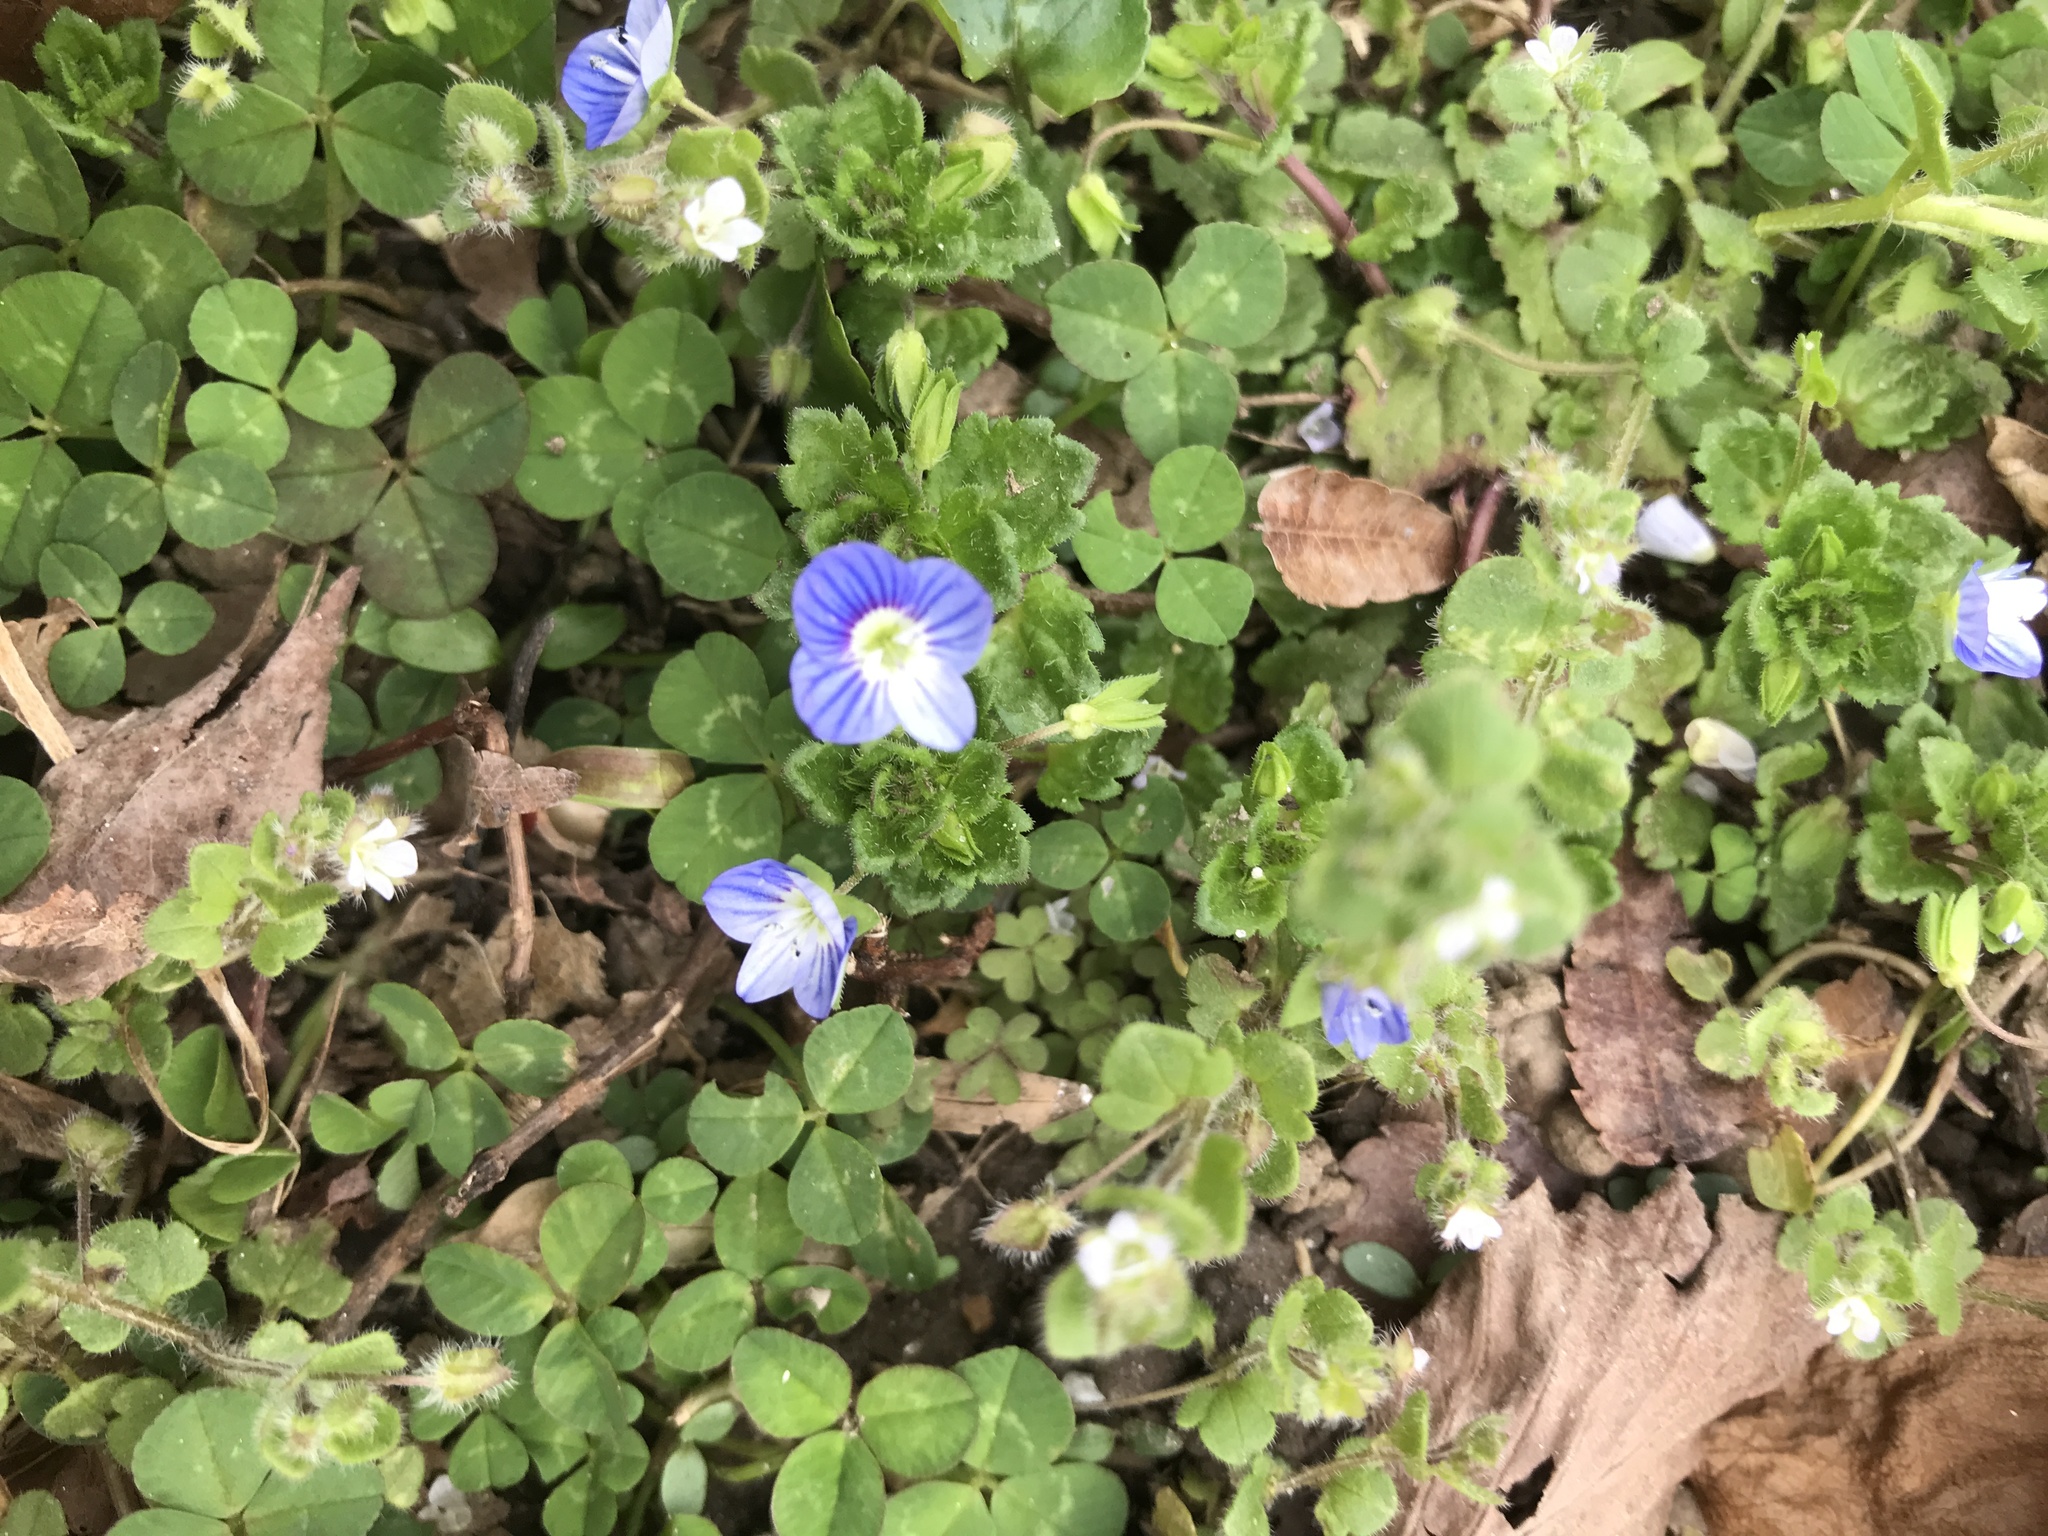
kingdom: Plantae
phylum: Tracheophyta
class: Magnoliopsida
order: Lamiales
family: Plantaginaceae
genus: Veronica
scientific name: Veronica persica
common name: Common field-speedwell
